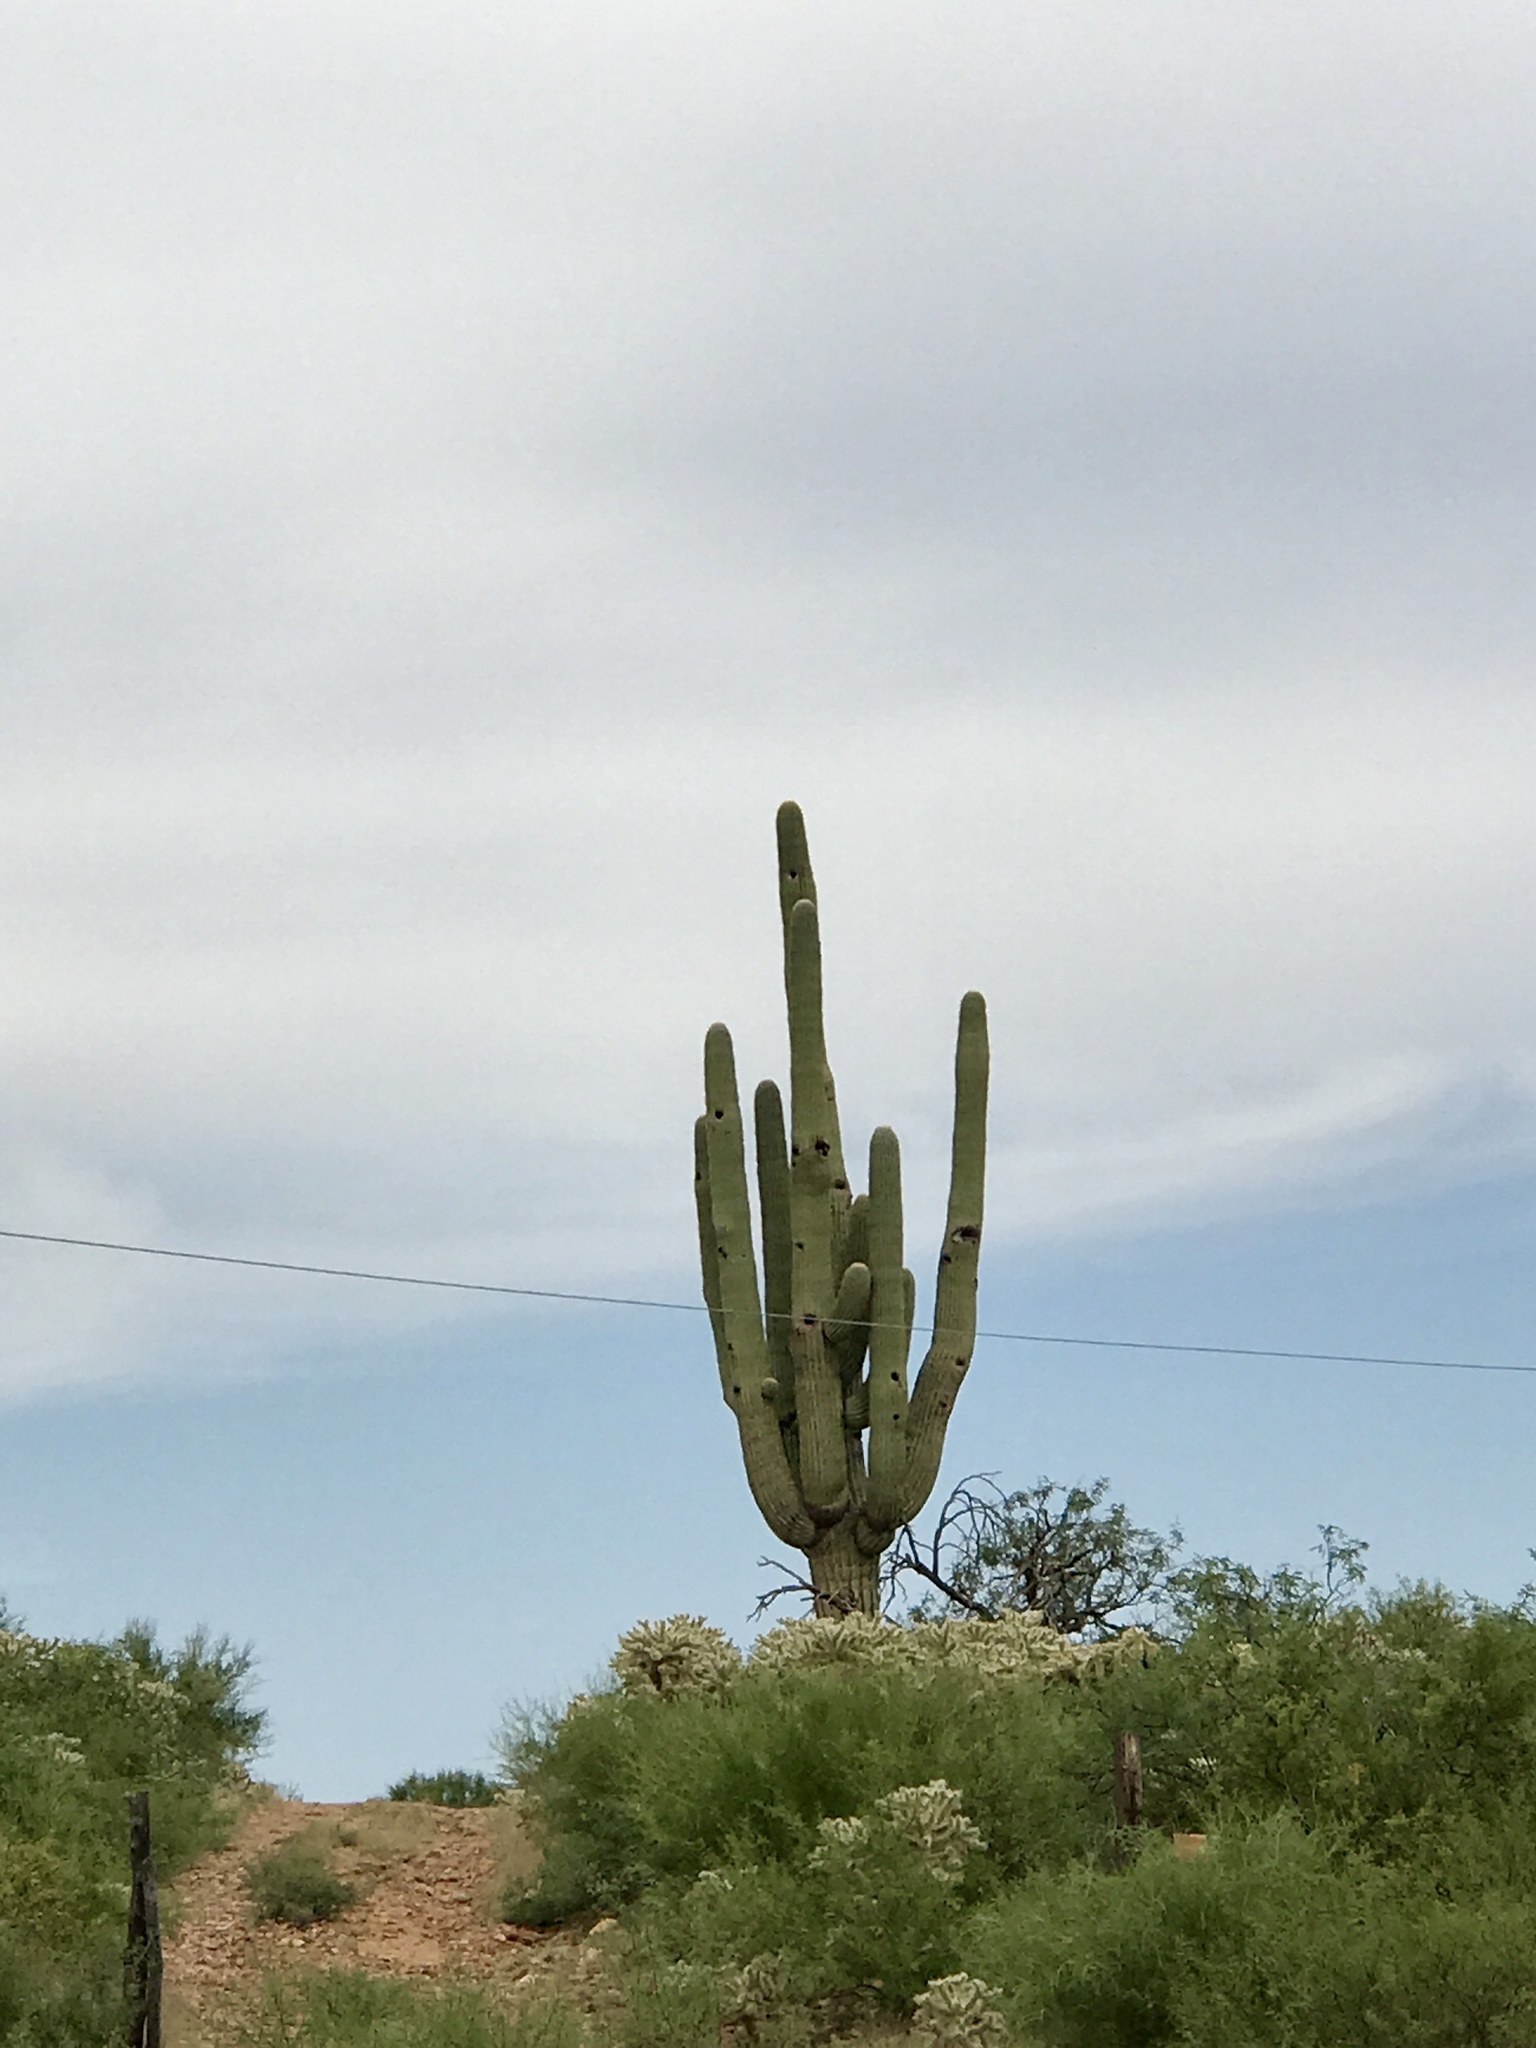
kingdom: Plantae
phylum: Tracheophyta
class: Magnoliopsida
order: Caryophyllales
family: Cactaceae
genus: Carnegiea
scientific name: Carnegiea gigantea
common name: Saguaro
